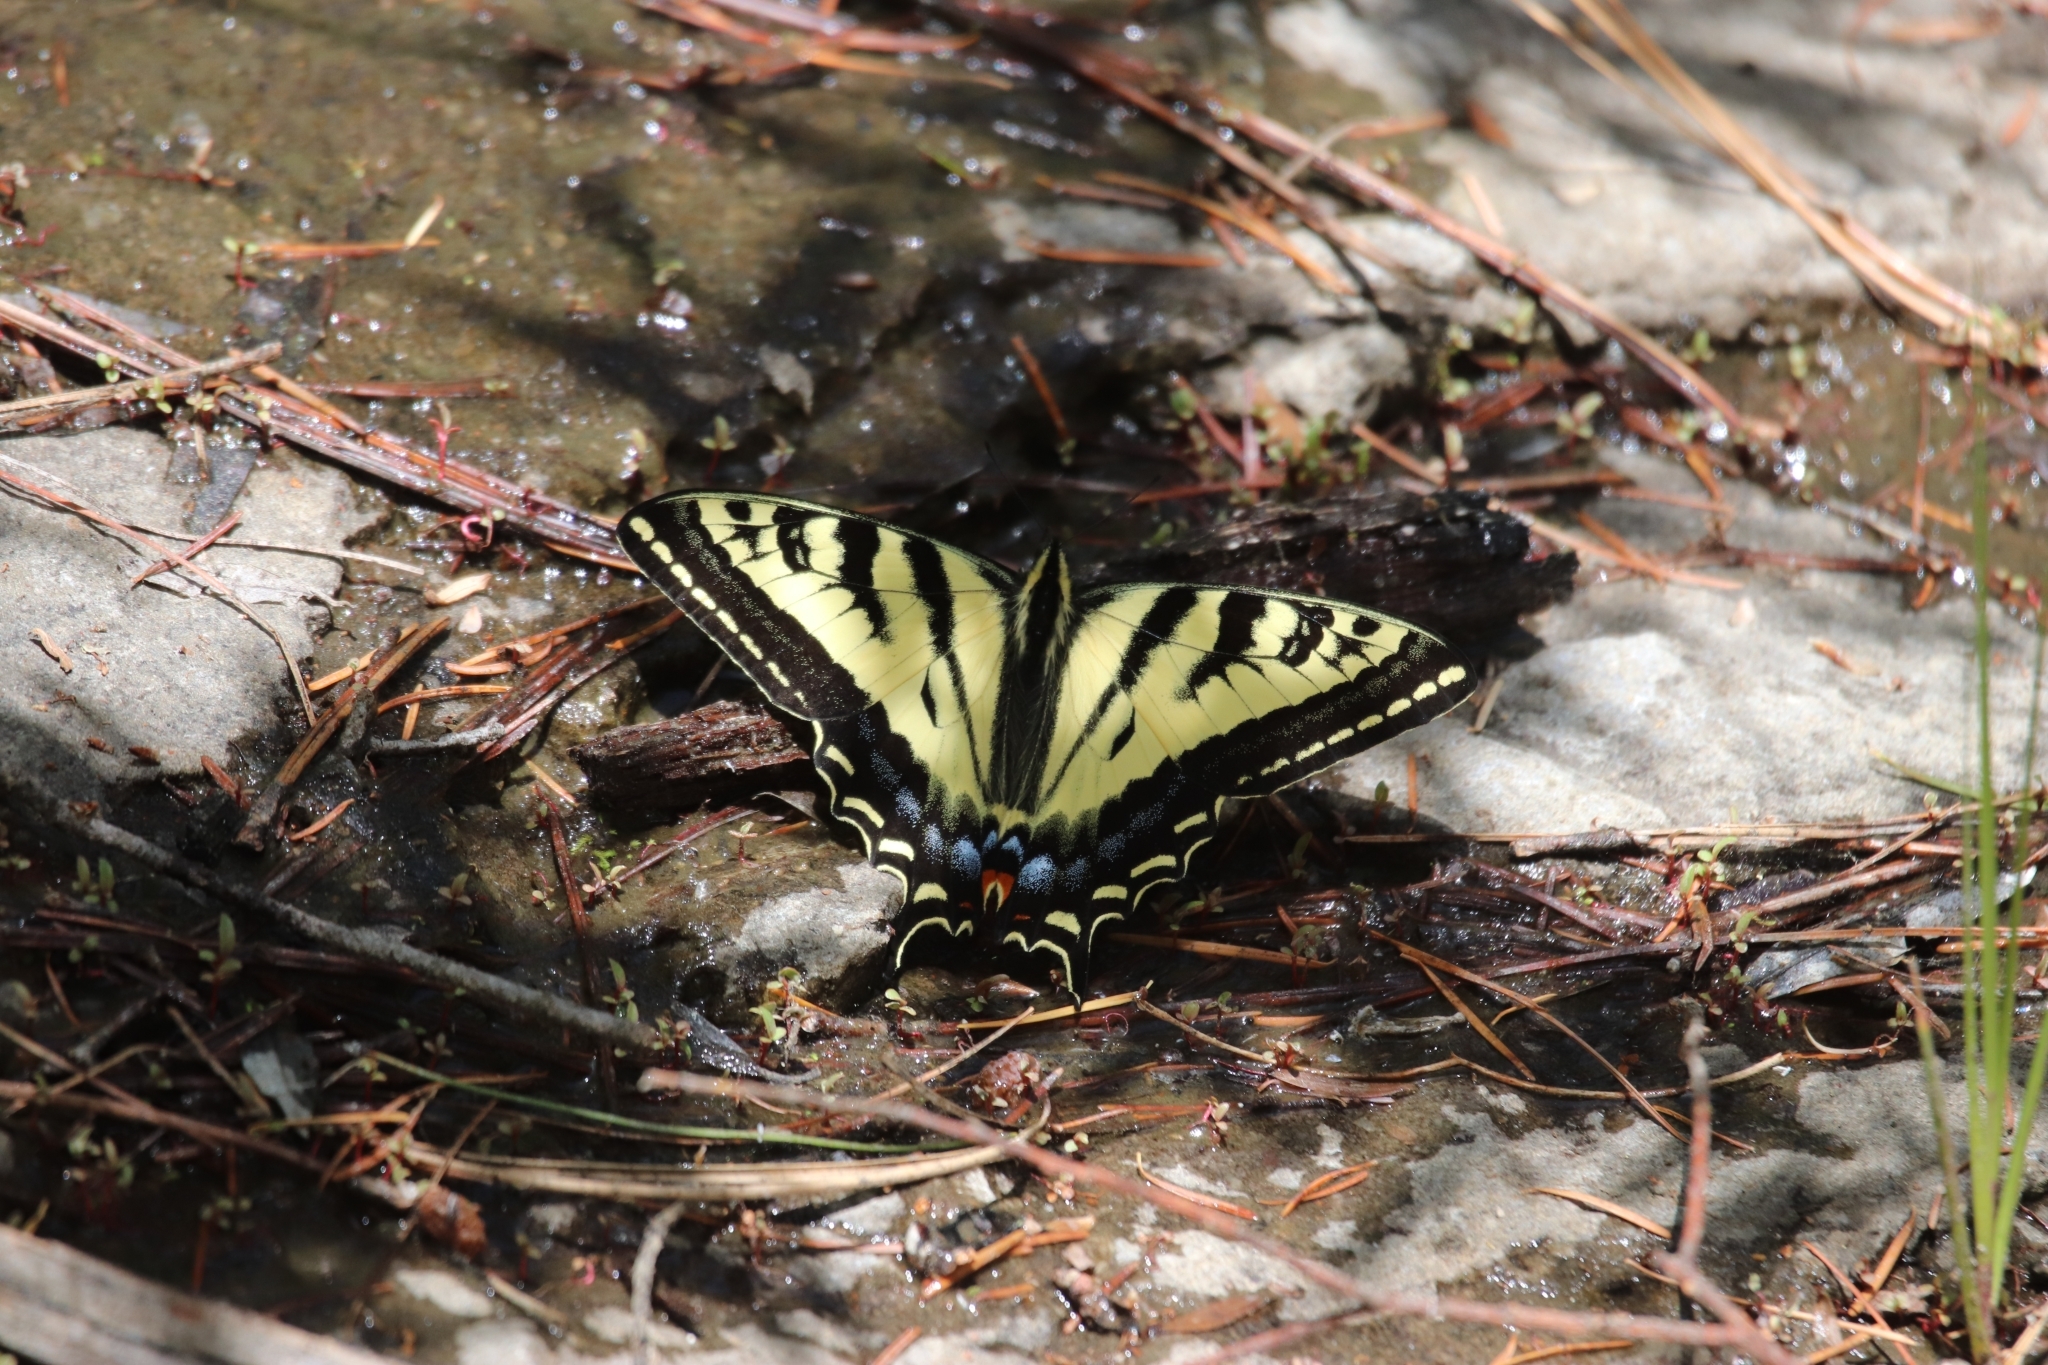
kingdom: Animalia
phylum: Arthropoda
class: Insecta
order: Lepidoptera
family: Papilionidae
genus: Papilio
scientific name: Papilio rutulus
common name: Western tiger swallowtail
